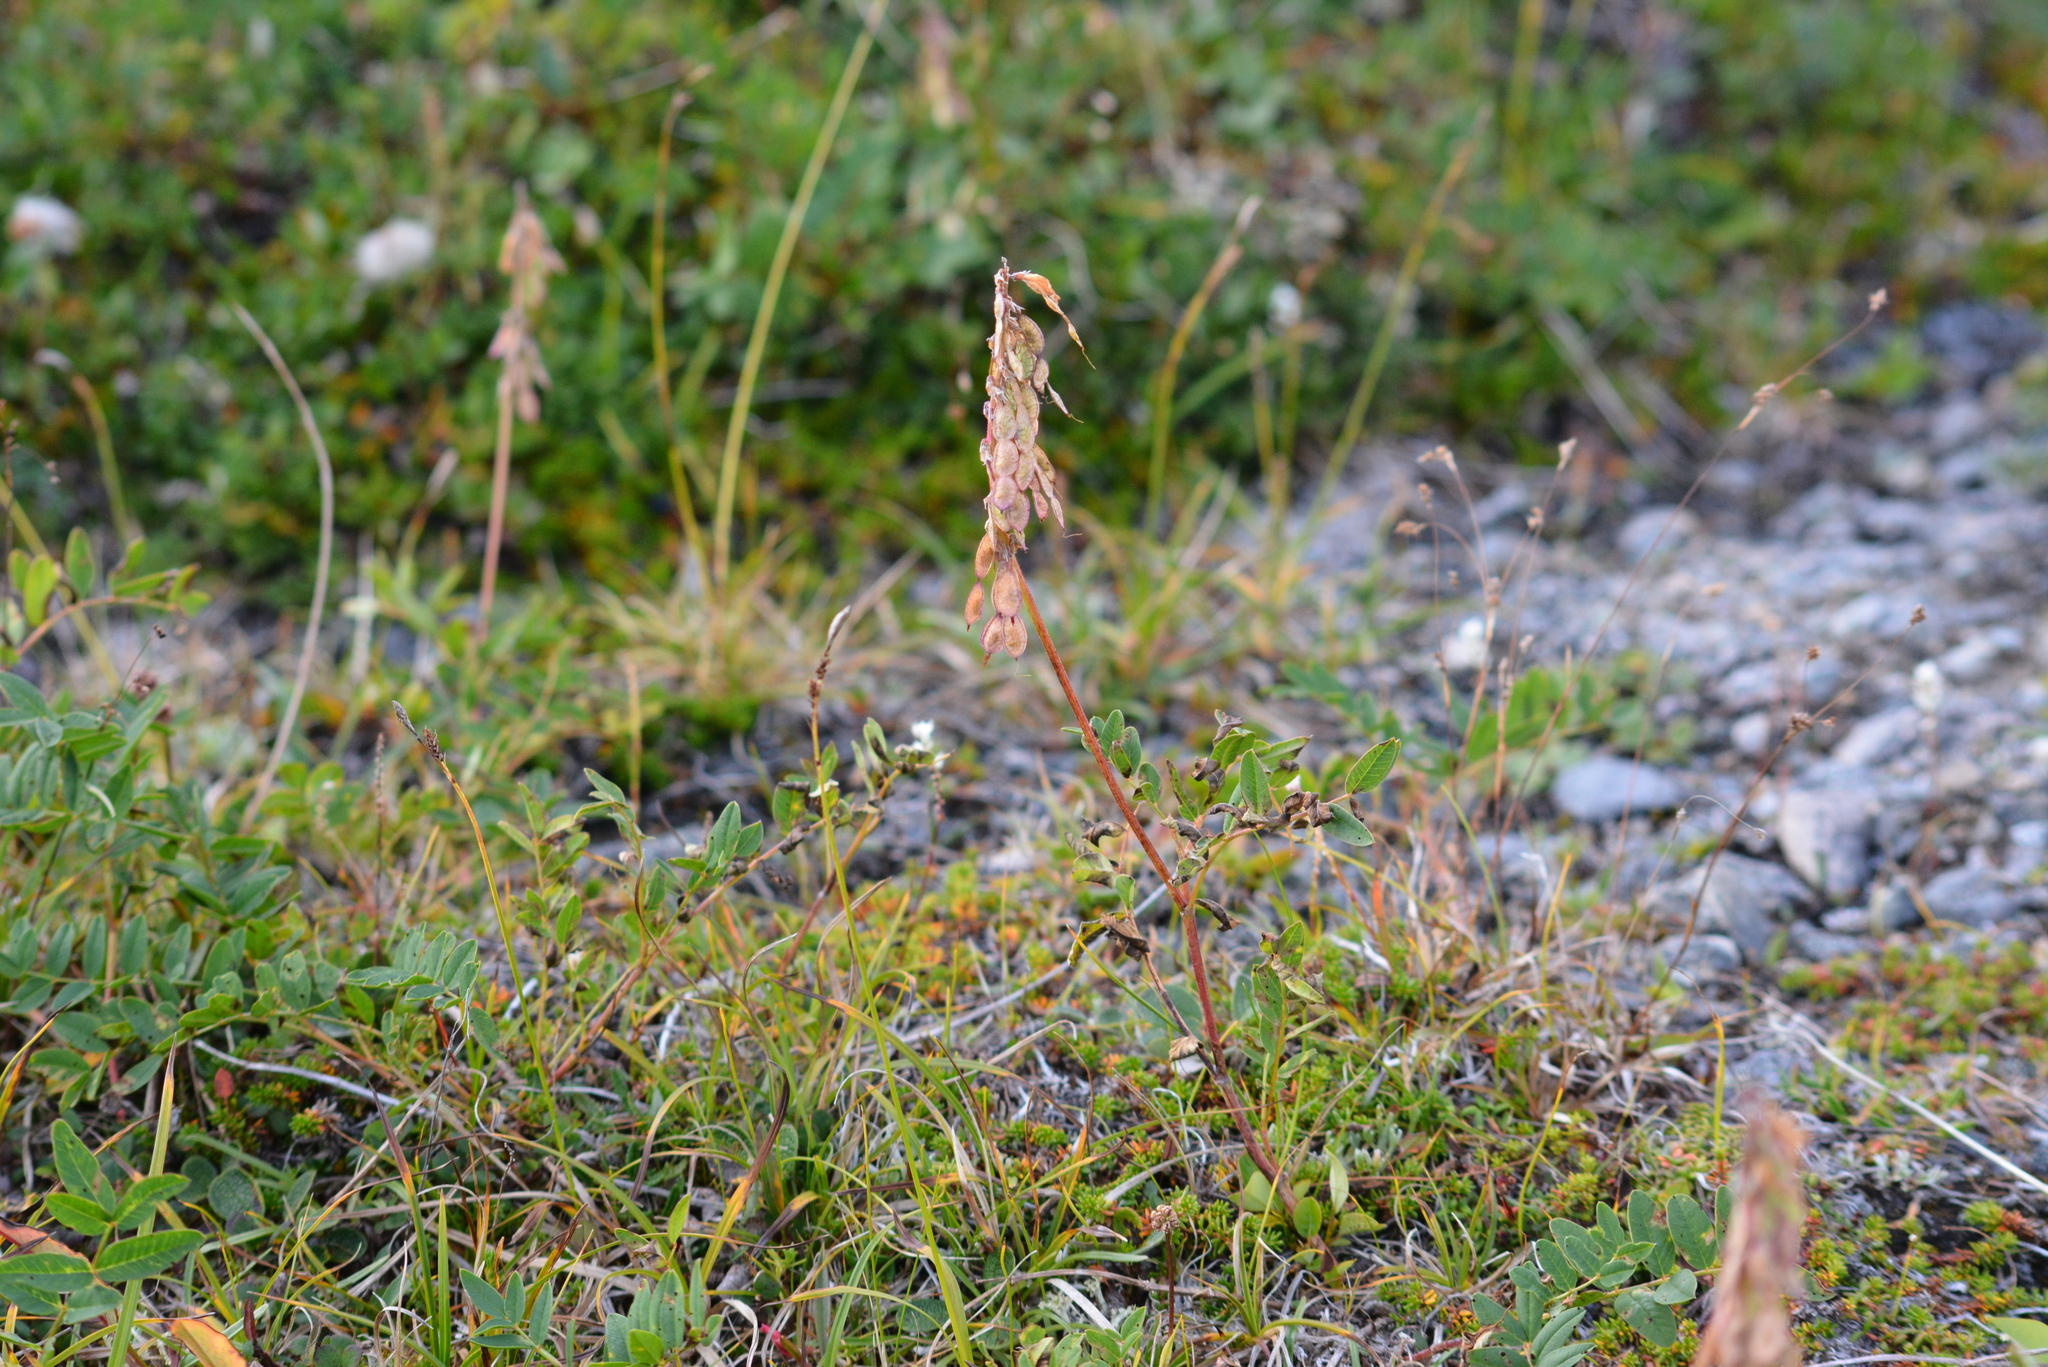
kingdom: Plantae
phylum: Tracheophyta
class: Magnoliopsida
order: Fabales
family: Fabaceae
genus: Hedysarum
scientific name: Hedysarum hedysaroides
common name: Alpine french-honeysuckle
